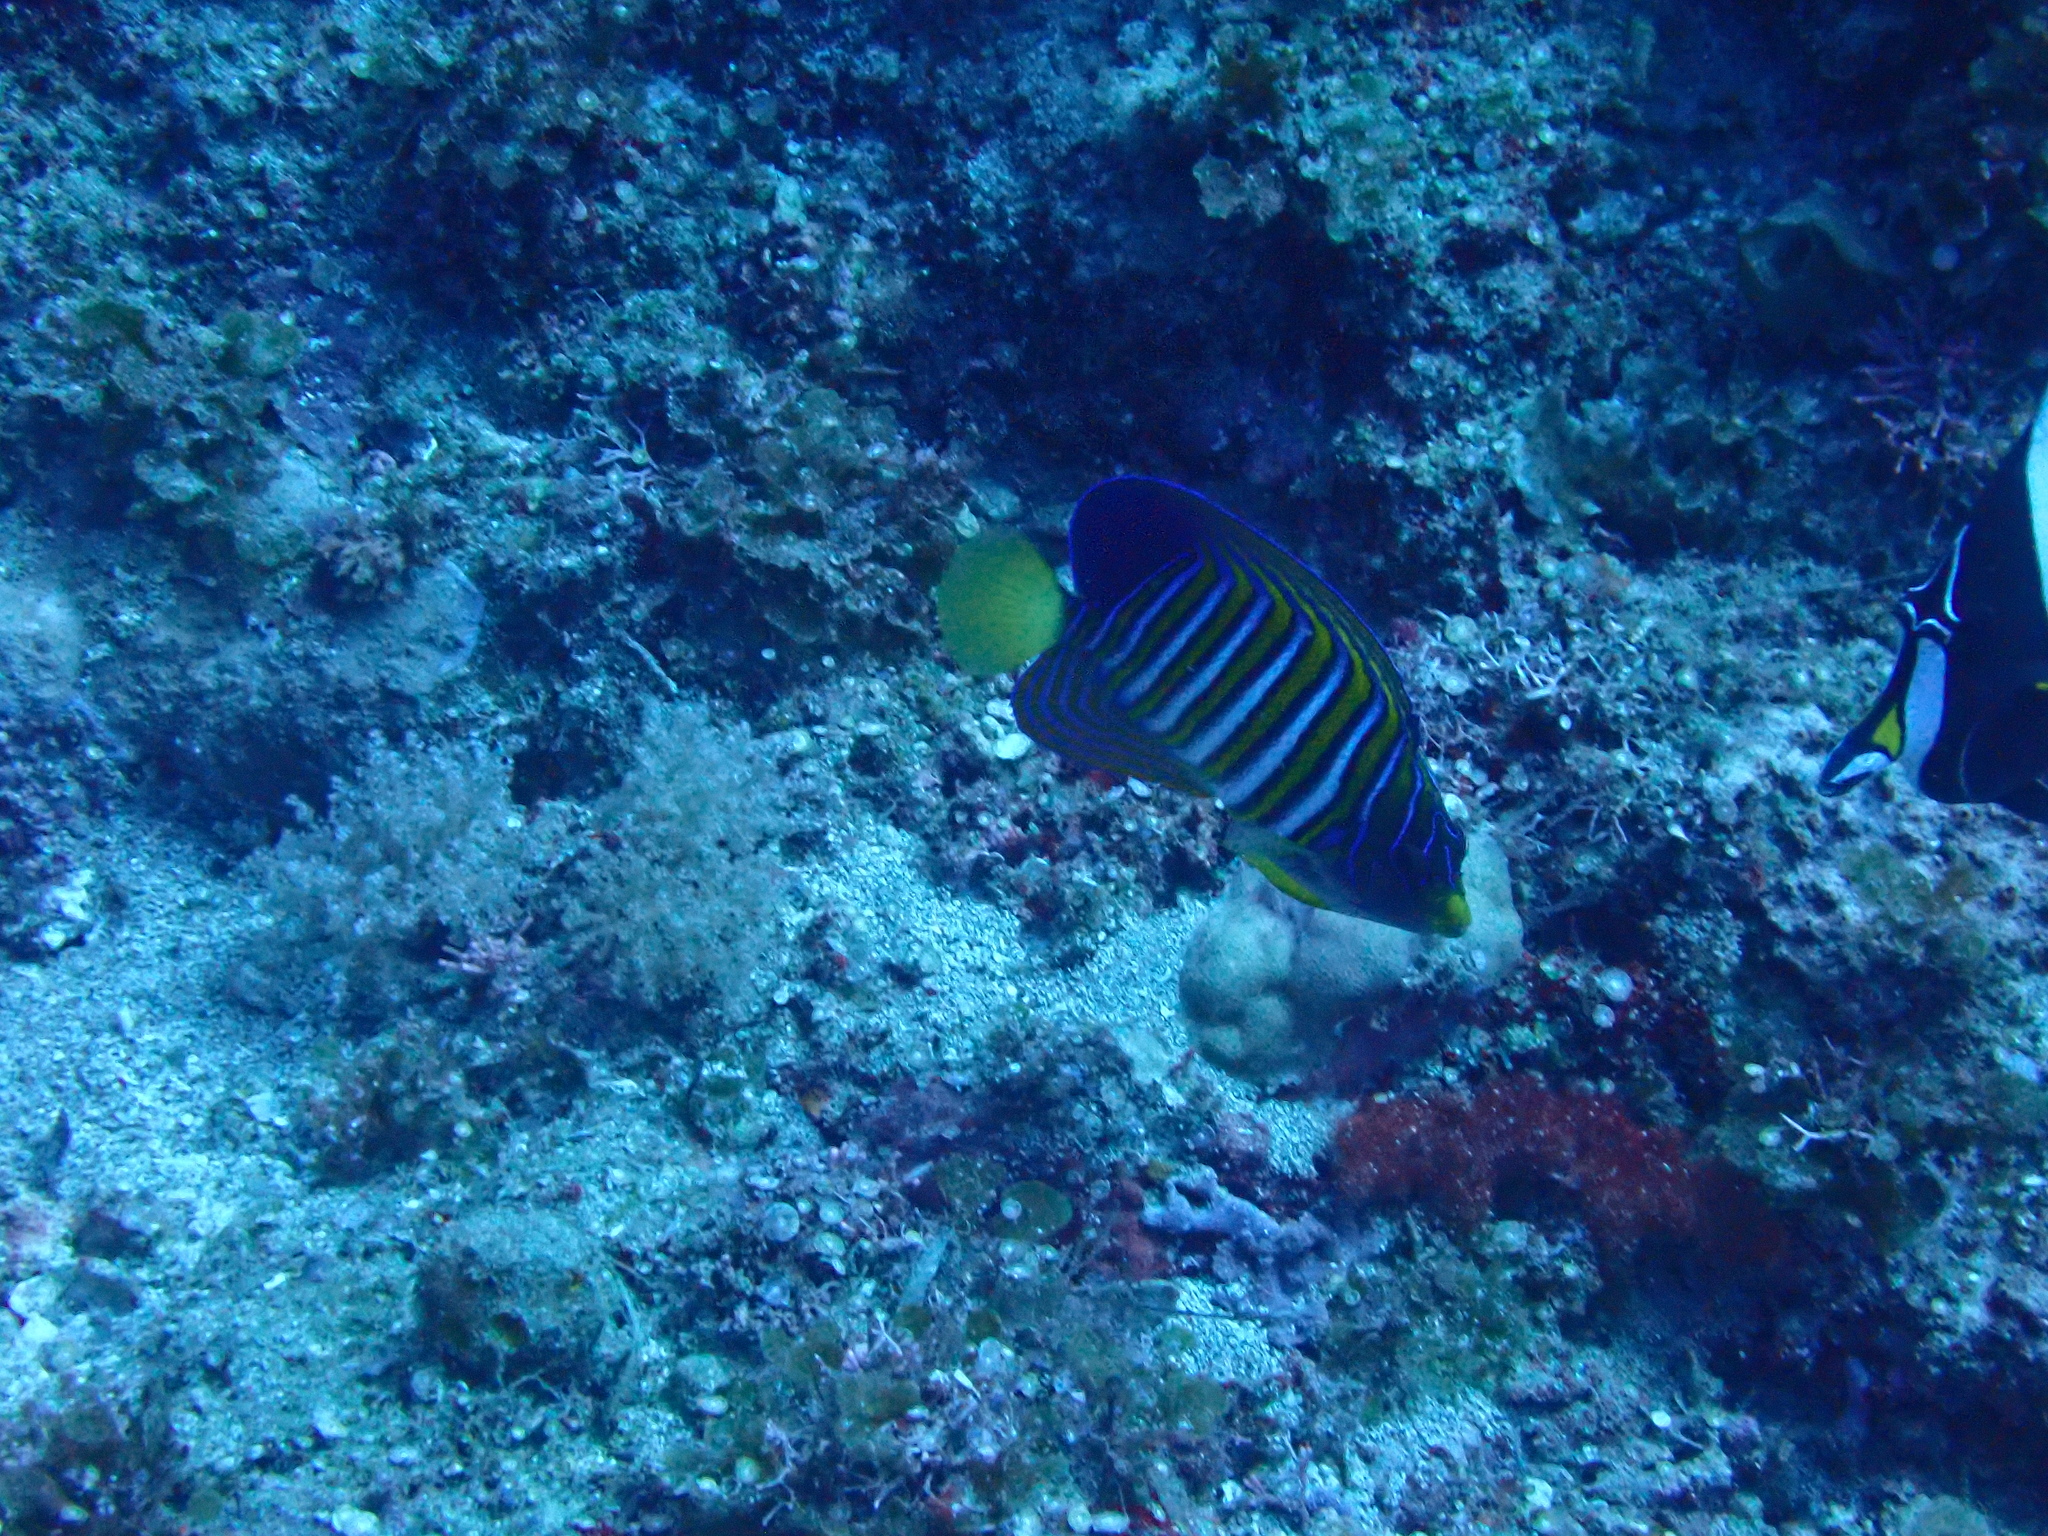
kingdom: Animalia
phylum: Chordata
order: Perciformes
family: Pomacanthidae
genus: Pygoplites
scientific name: Pygoplites diacanthus
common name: Regal angelfish
